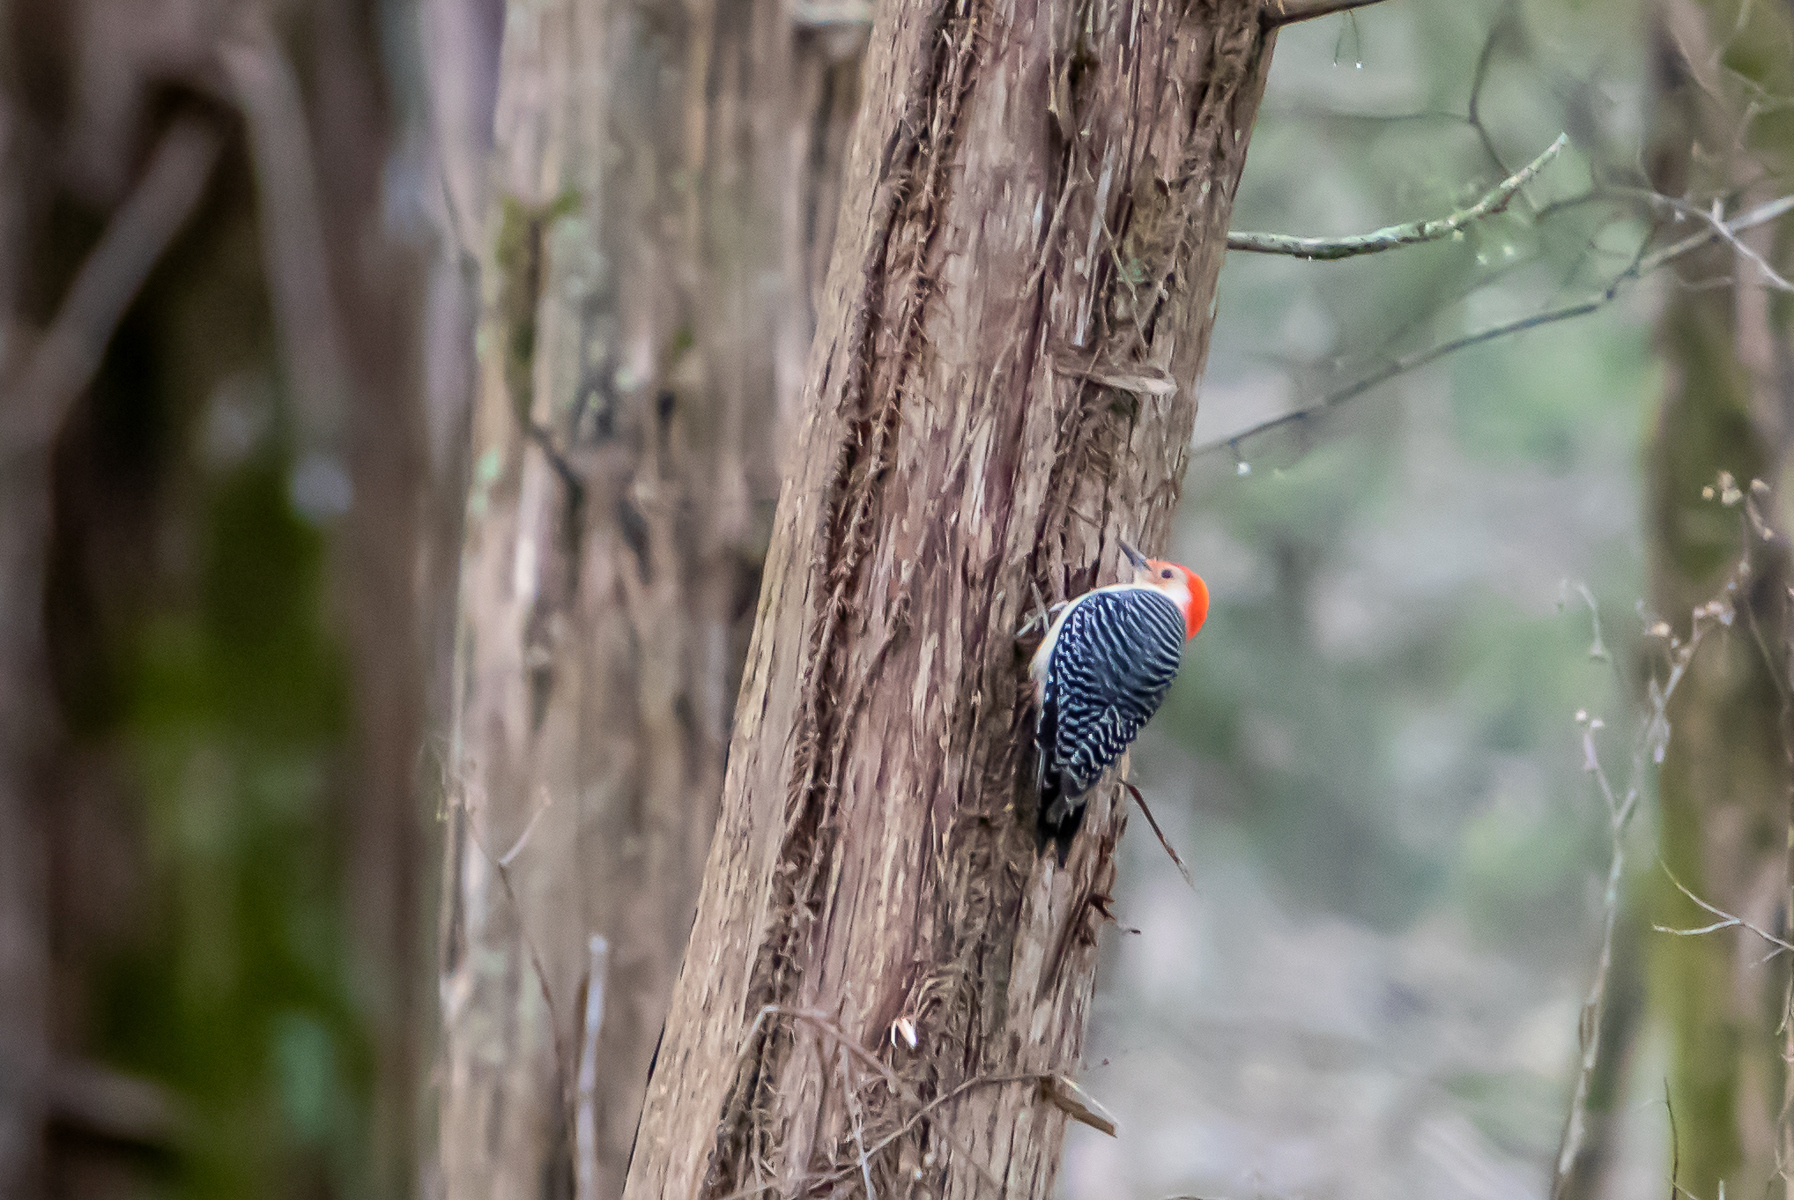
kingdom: Animalia
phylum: Chordata
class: Aves
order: Piciformes
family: Picidae
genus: Melanerpes
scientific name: Melanerpes carolinus
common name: Red-bellied woodpecker
